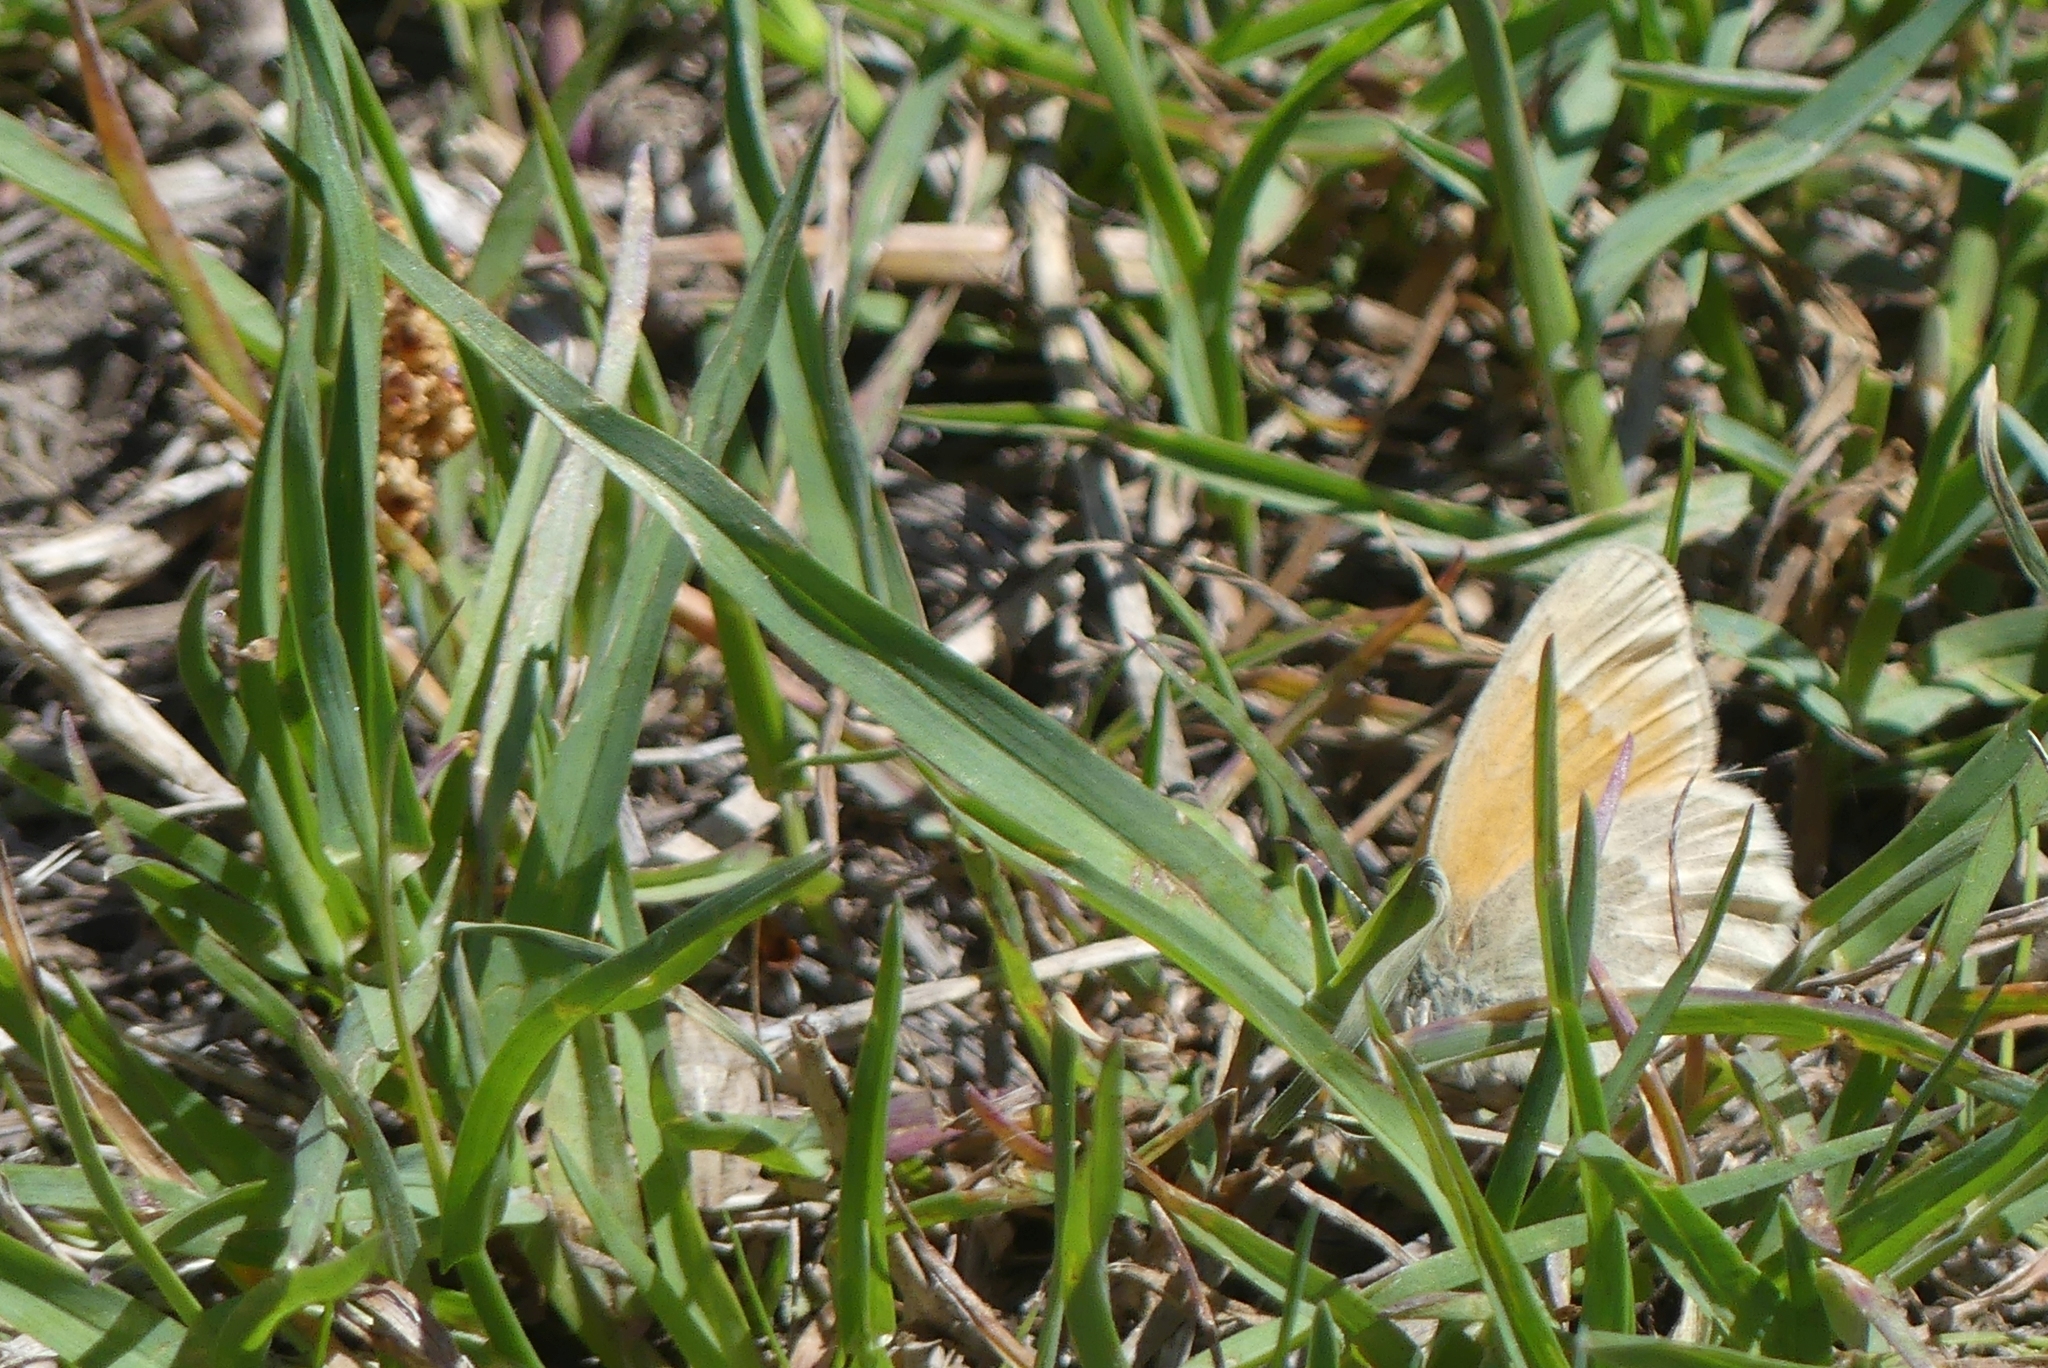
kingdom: Animalia
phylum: Arthropoda
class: Insecta
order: Lepidoptera
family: Nymphalidae
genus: Coenonympha
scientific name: Coenonympha california
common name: Common ringlet
